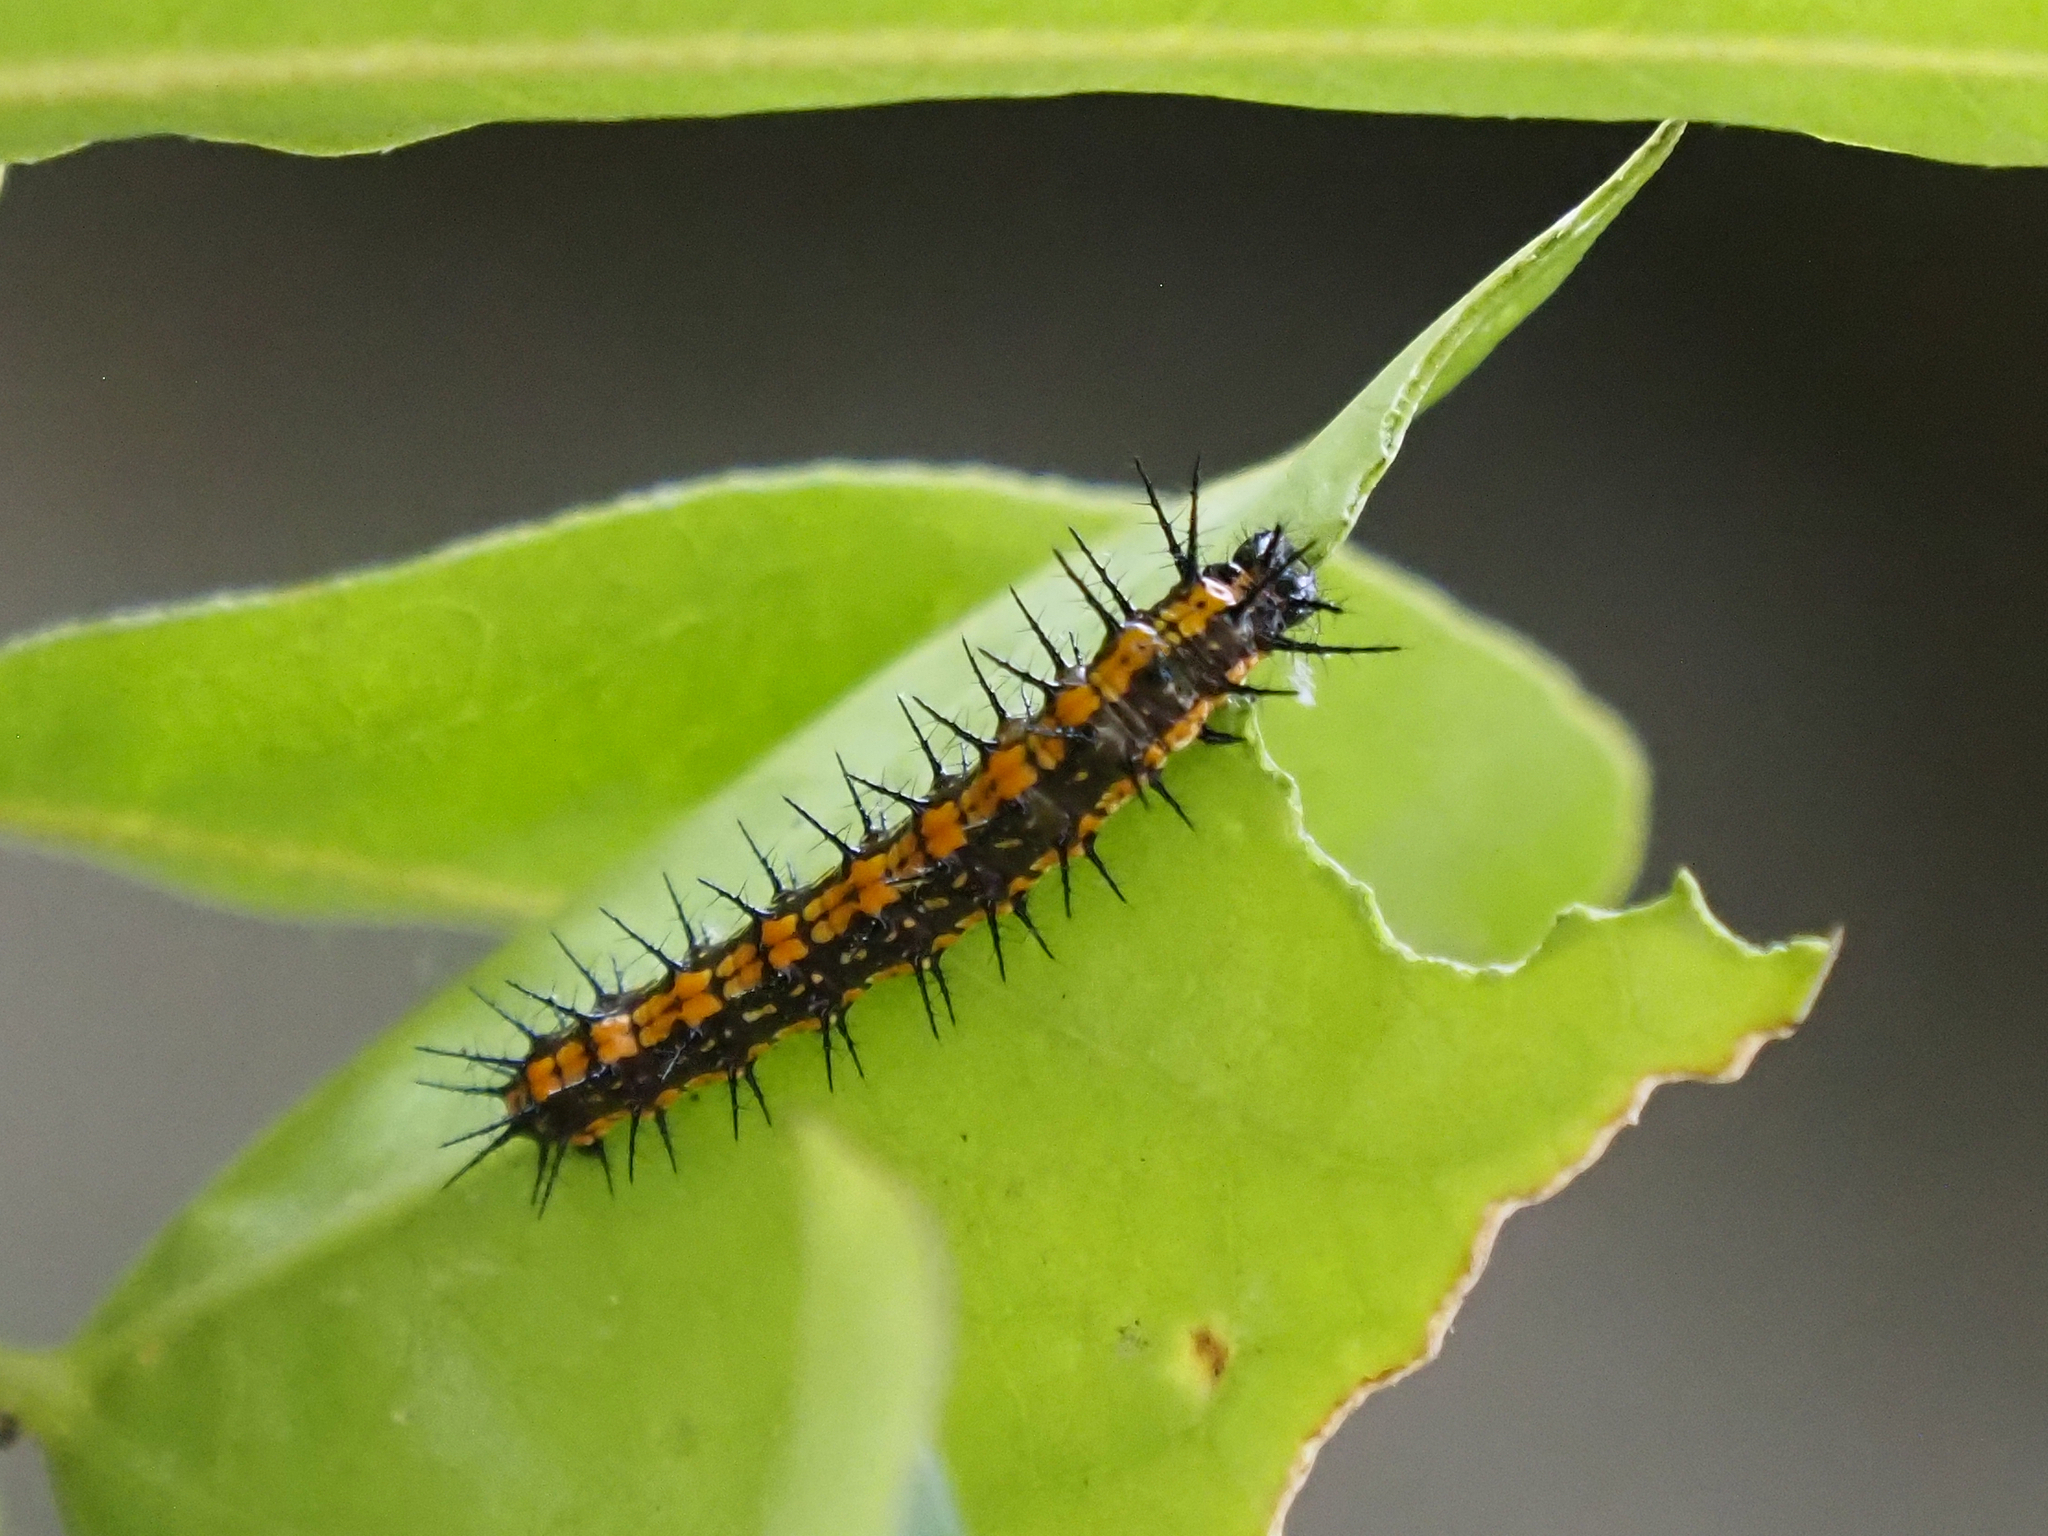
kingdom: Animalia
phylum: Arthropoda
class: Insecta
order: Lepidoptera
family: Nymphalidae
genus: Dione
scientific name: Dione vanillae
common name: Gulf fritillary
